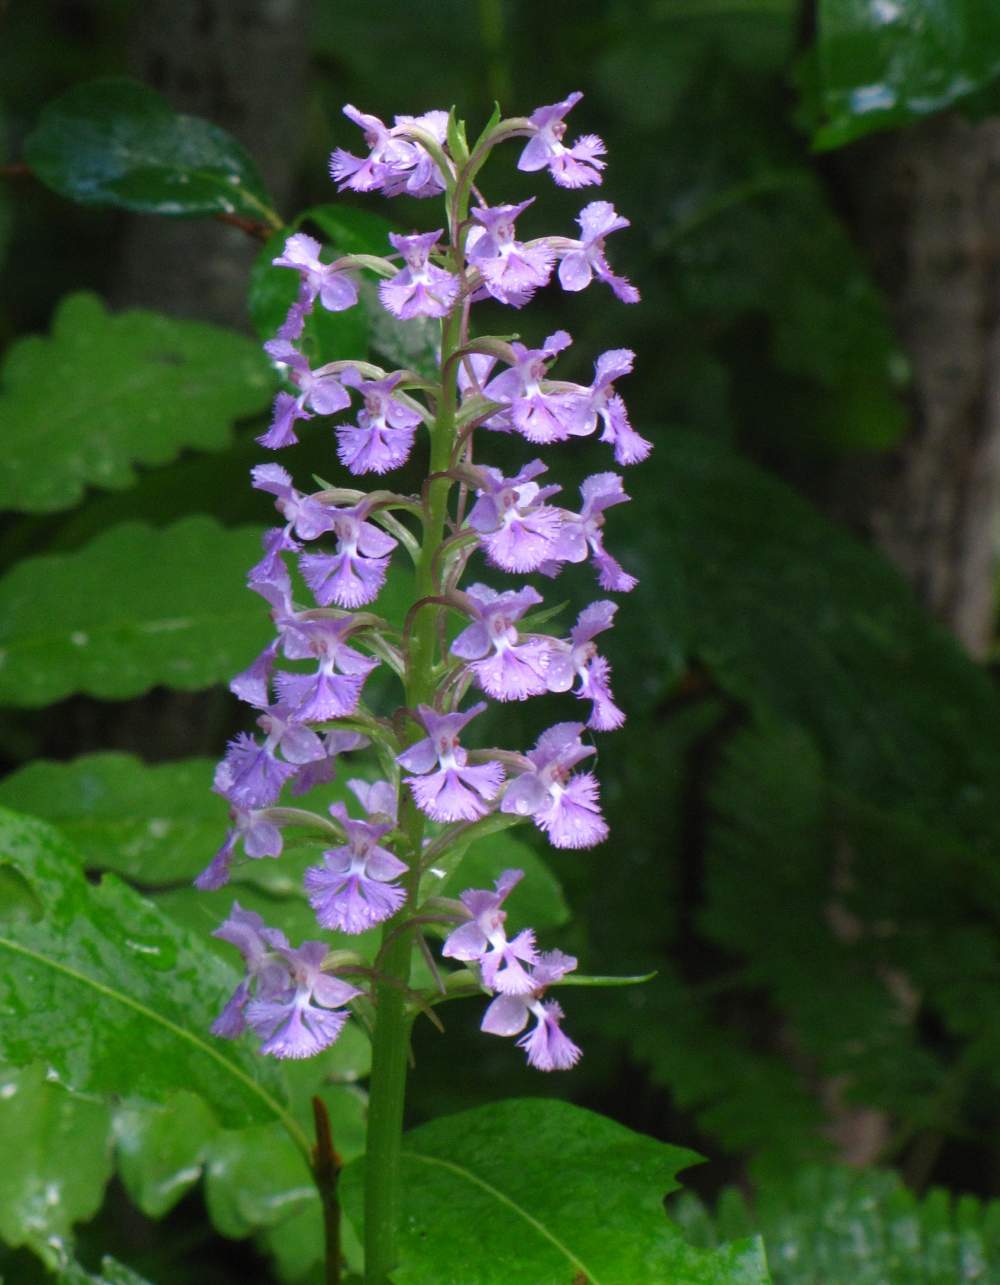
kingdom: Plantae
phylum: Tracheophyta
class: Liliopsida
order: Asparagales
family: Orchidaceae
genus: Platanthera
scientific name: Platanthera psycodes
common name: Lesser purple fringed orchid
